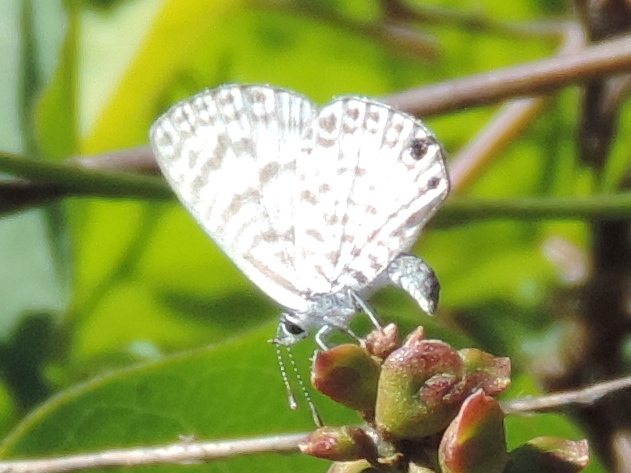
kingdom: Animalia
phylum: Arthropoda
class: Insecta
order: Lepidoptera
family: Lycaenidae
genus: Leptotes
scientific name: Leptotes cassius
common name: Cassius blue
